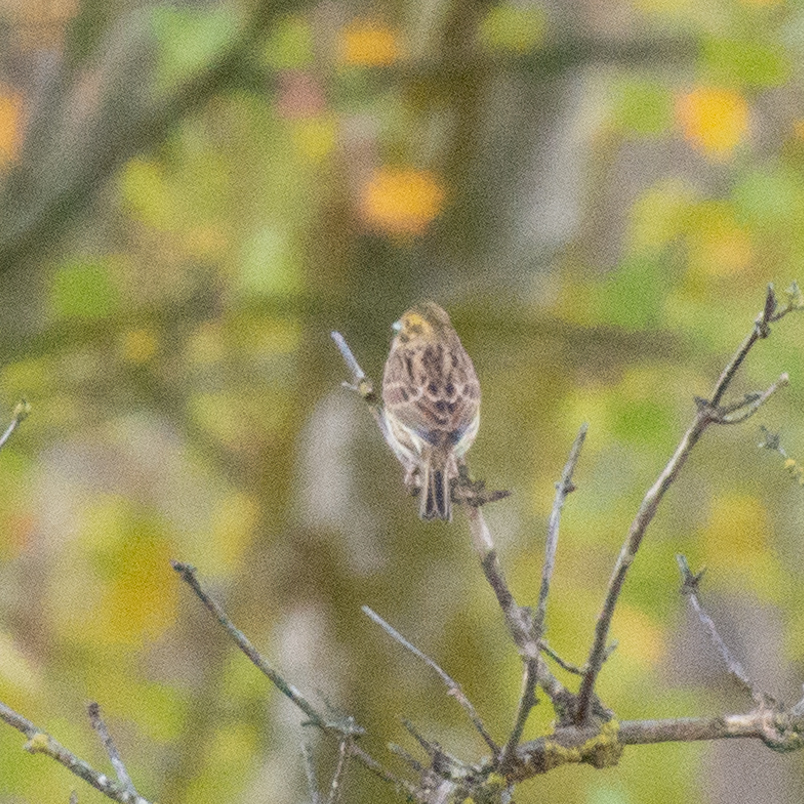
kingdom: Animalia
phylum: Chordata
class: Aves
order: Passeriformes
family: Emberizidae
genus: Emberiza
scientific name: Emberiza cirlus
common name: Cirl bunting
